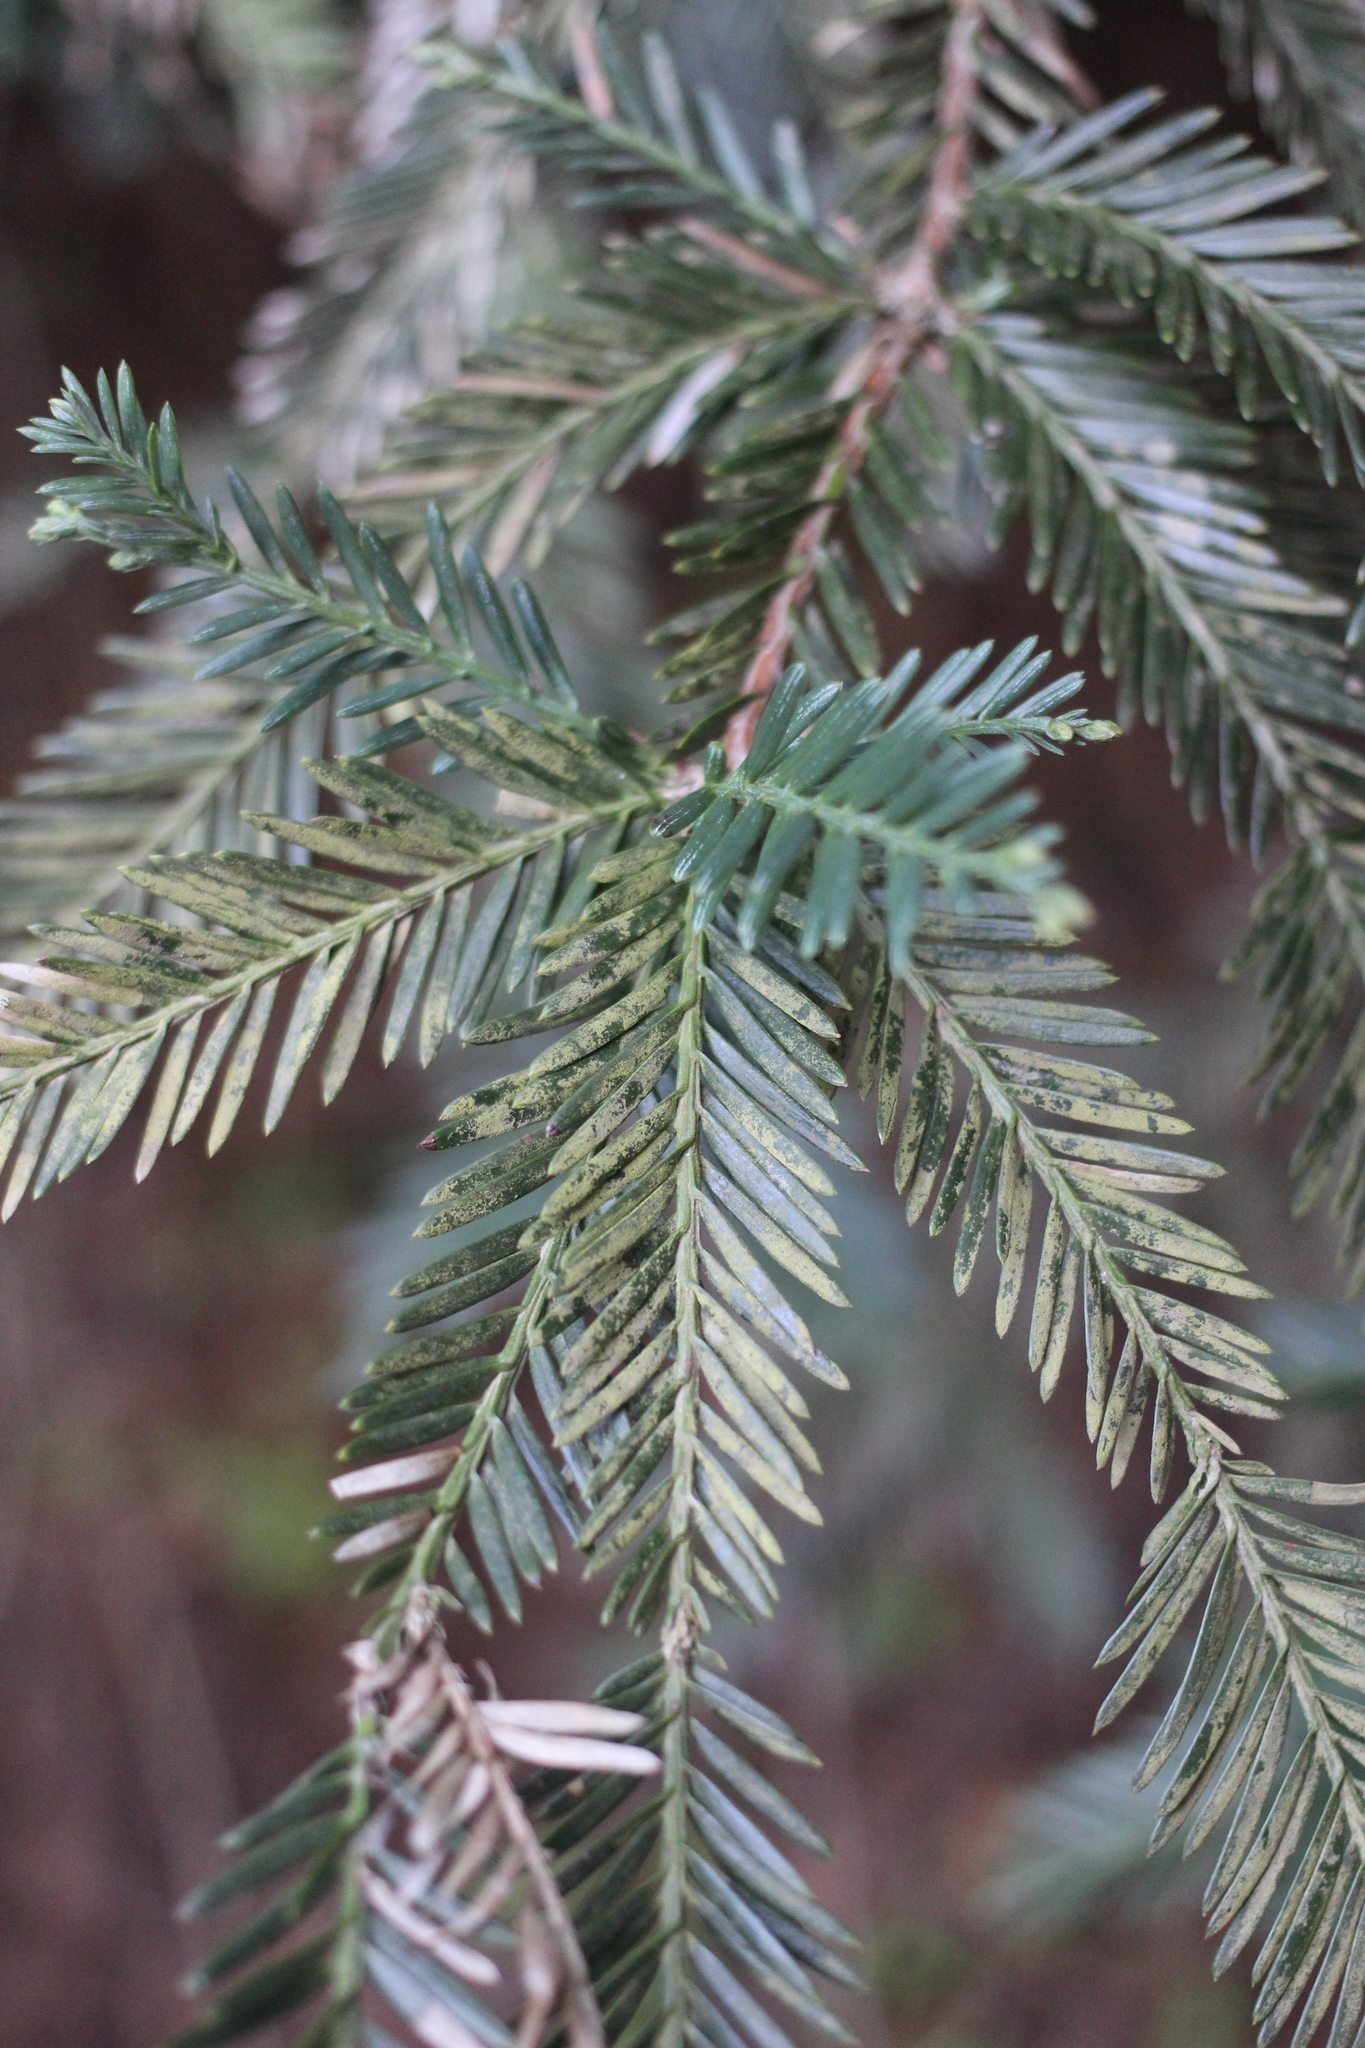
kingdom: Plantae
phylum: Tracheophyta
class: Pinopsida
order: Pinales
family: Cupressaceae
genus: Sequoia
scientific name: Sequoia sempervirens
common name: Coast redwood
